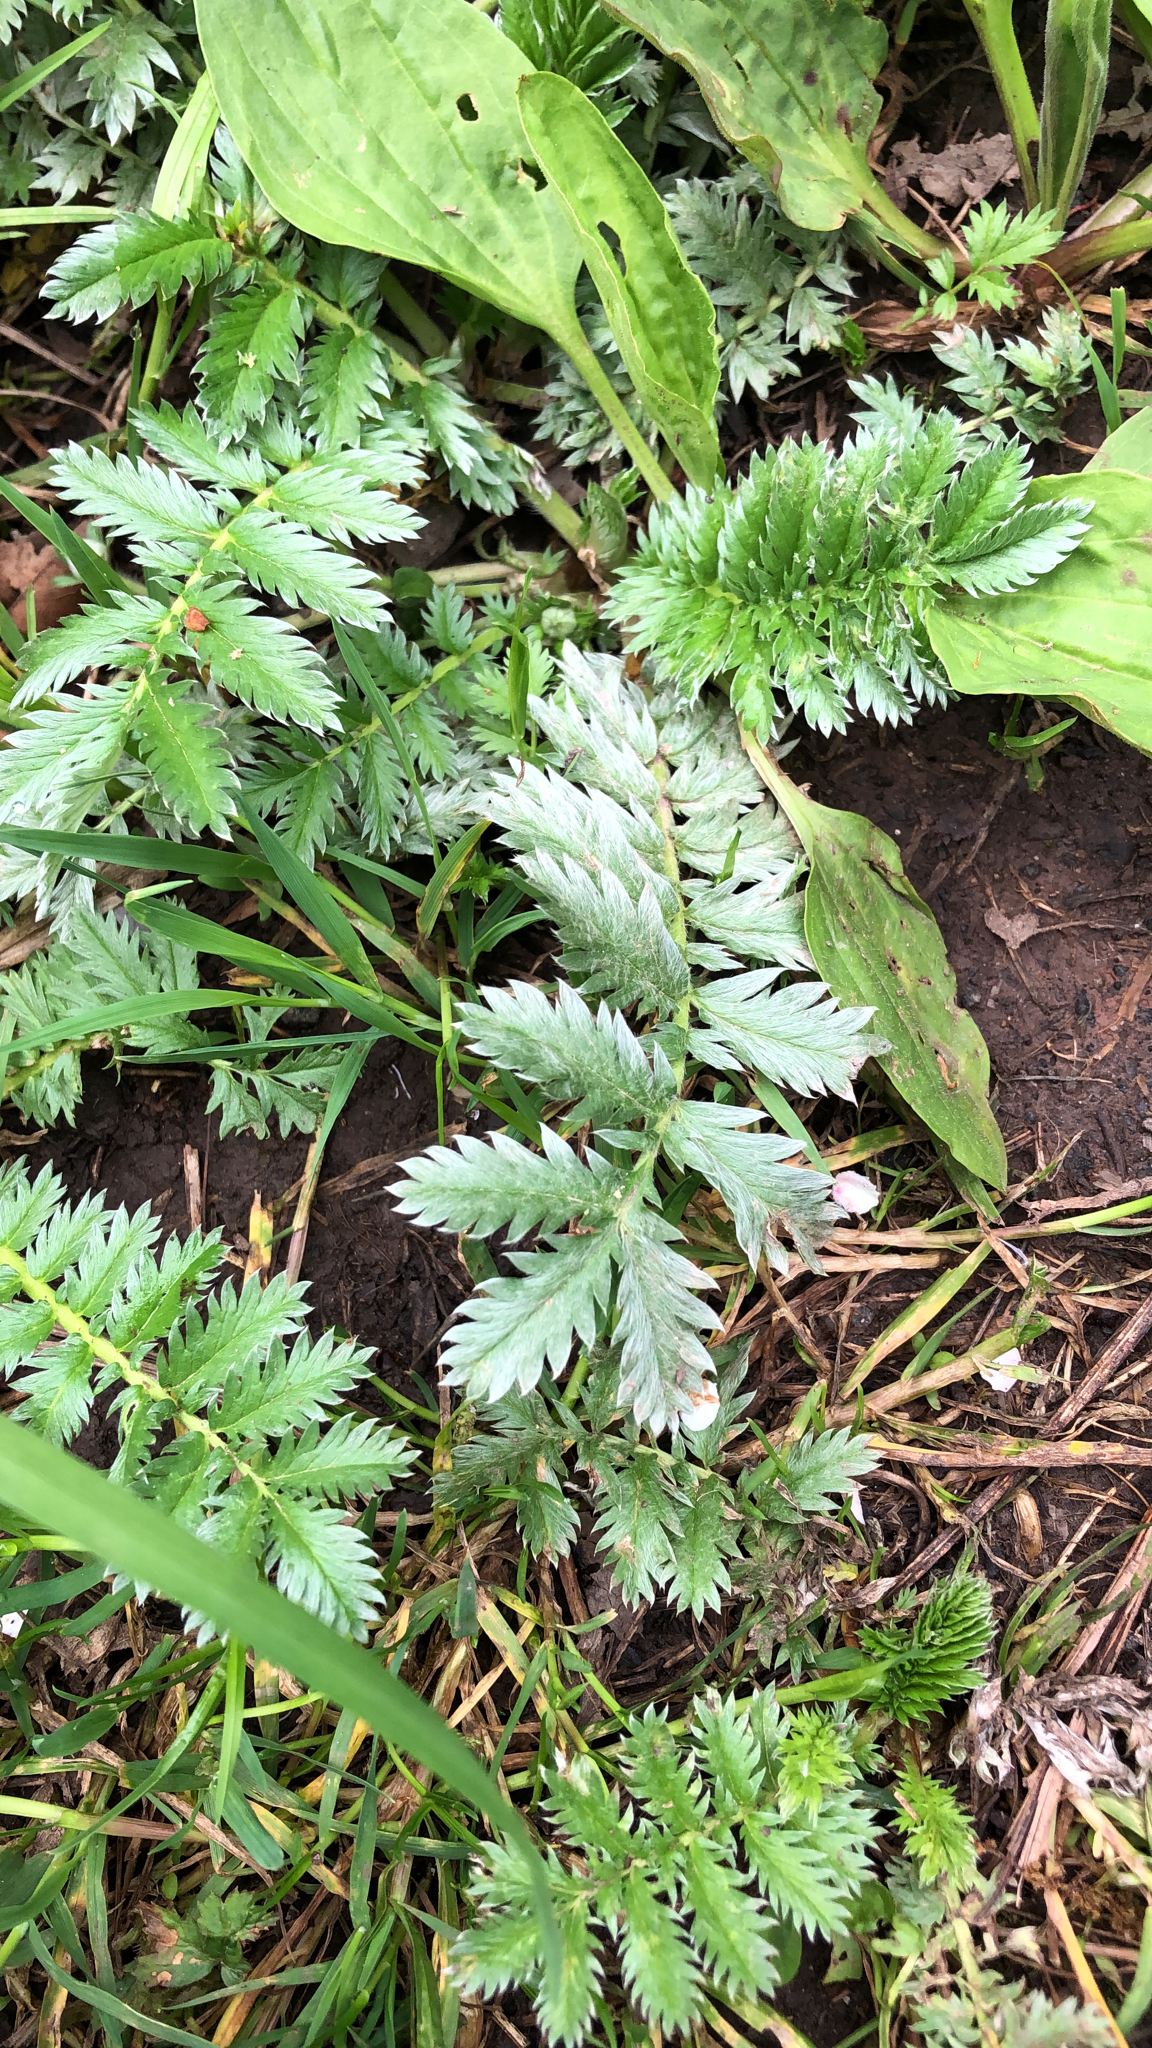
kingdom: Plantae
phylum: Tracheophyta
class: Magnoliopsida
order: Rosales
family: Rosaceae
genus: Argentina
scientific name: Argentina anserina
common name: Common silverweed
